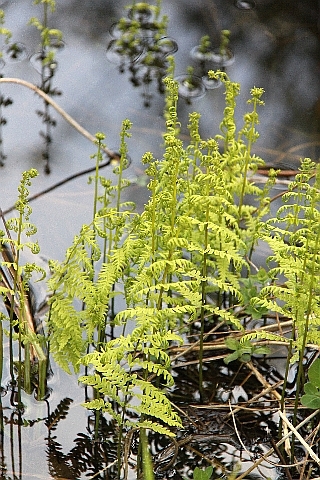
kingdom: Plantae
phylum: Tracheophyta
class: Polypodiopsida
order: Polypodiales
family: Thelypteridaceae
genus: Thelypteris
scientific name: Thelypteris palustris
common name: Marsh fern
